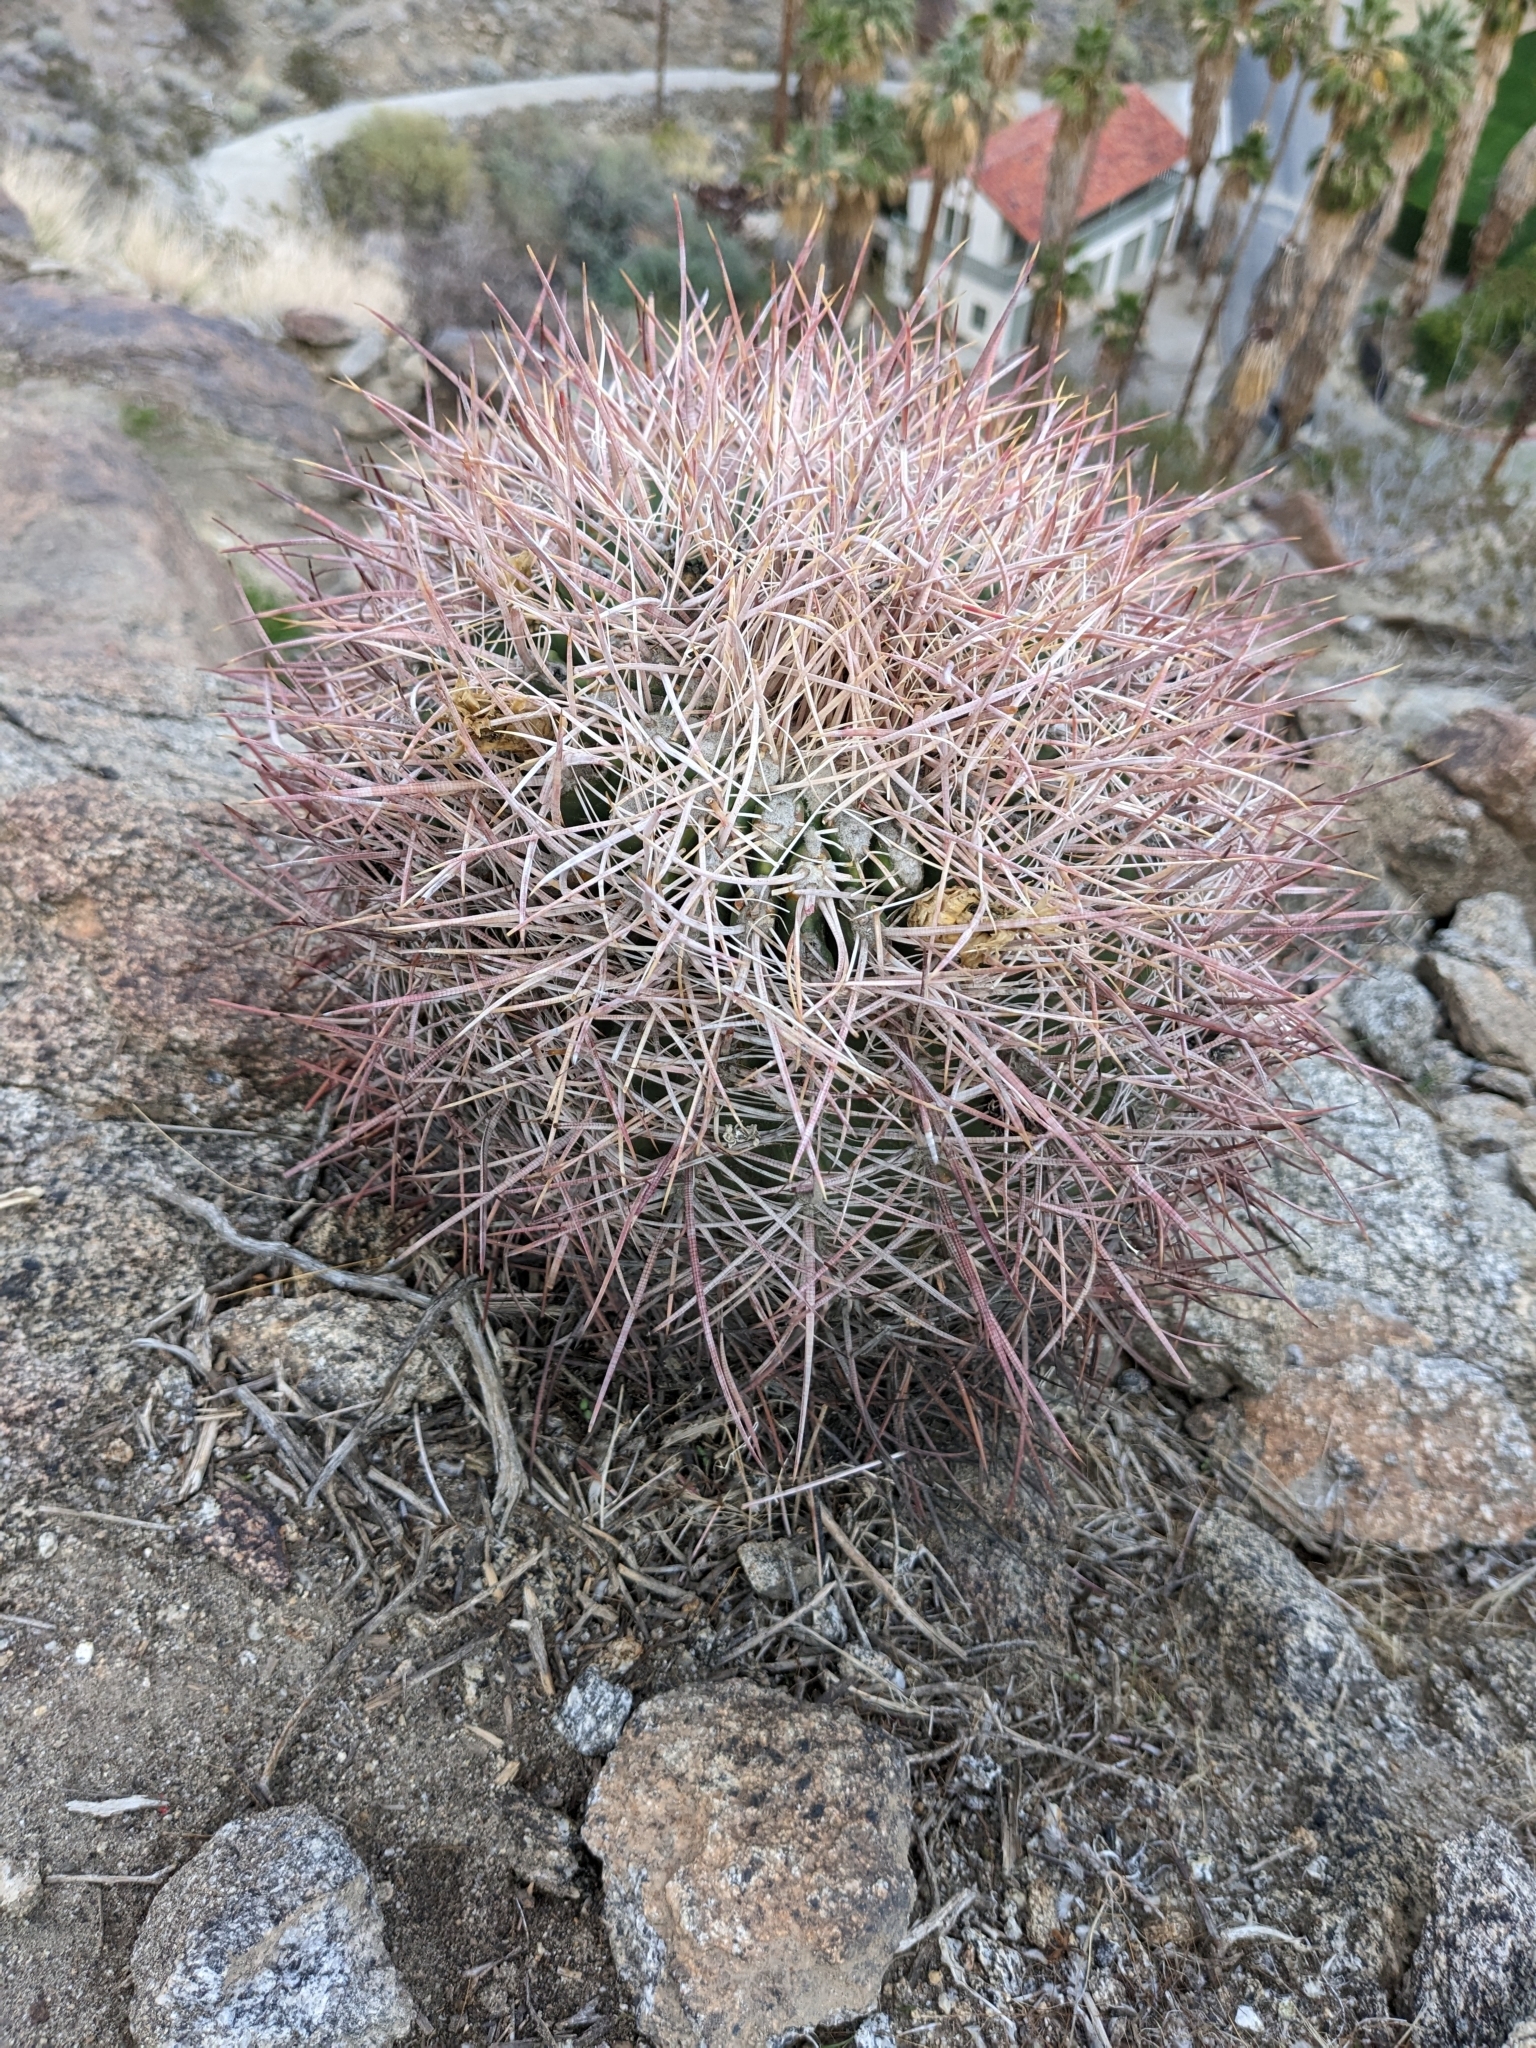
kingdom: Plantae
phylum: Tracheophyta
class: Magnoliopsida
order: Caryophyllales
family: Cactaceae
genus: Ferocactus
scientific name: Ferocactus cylindraceus
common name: California barrel cactus
